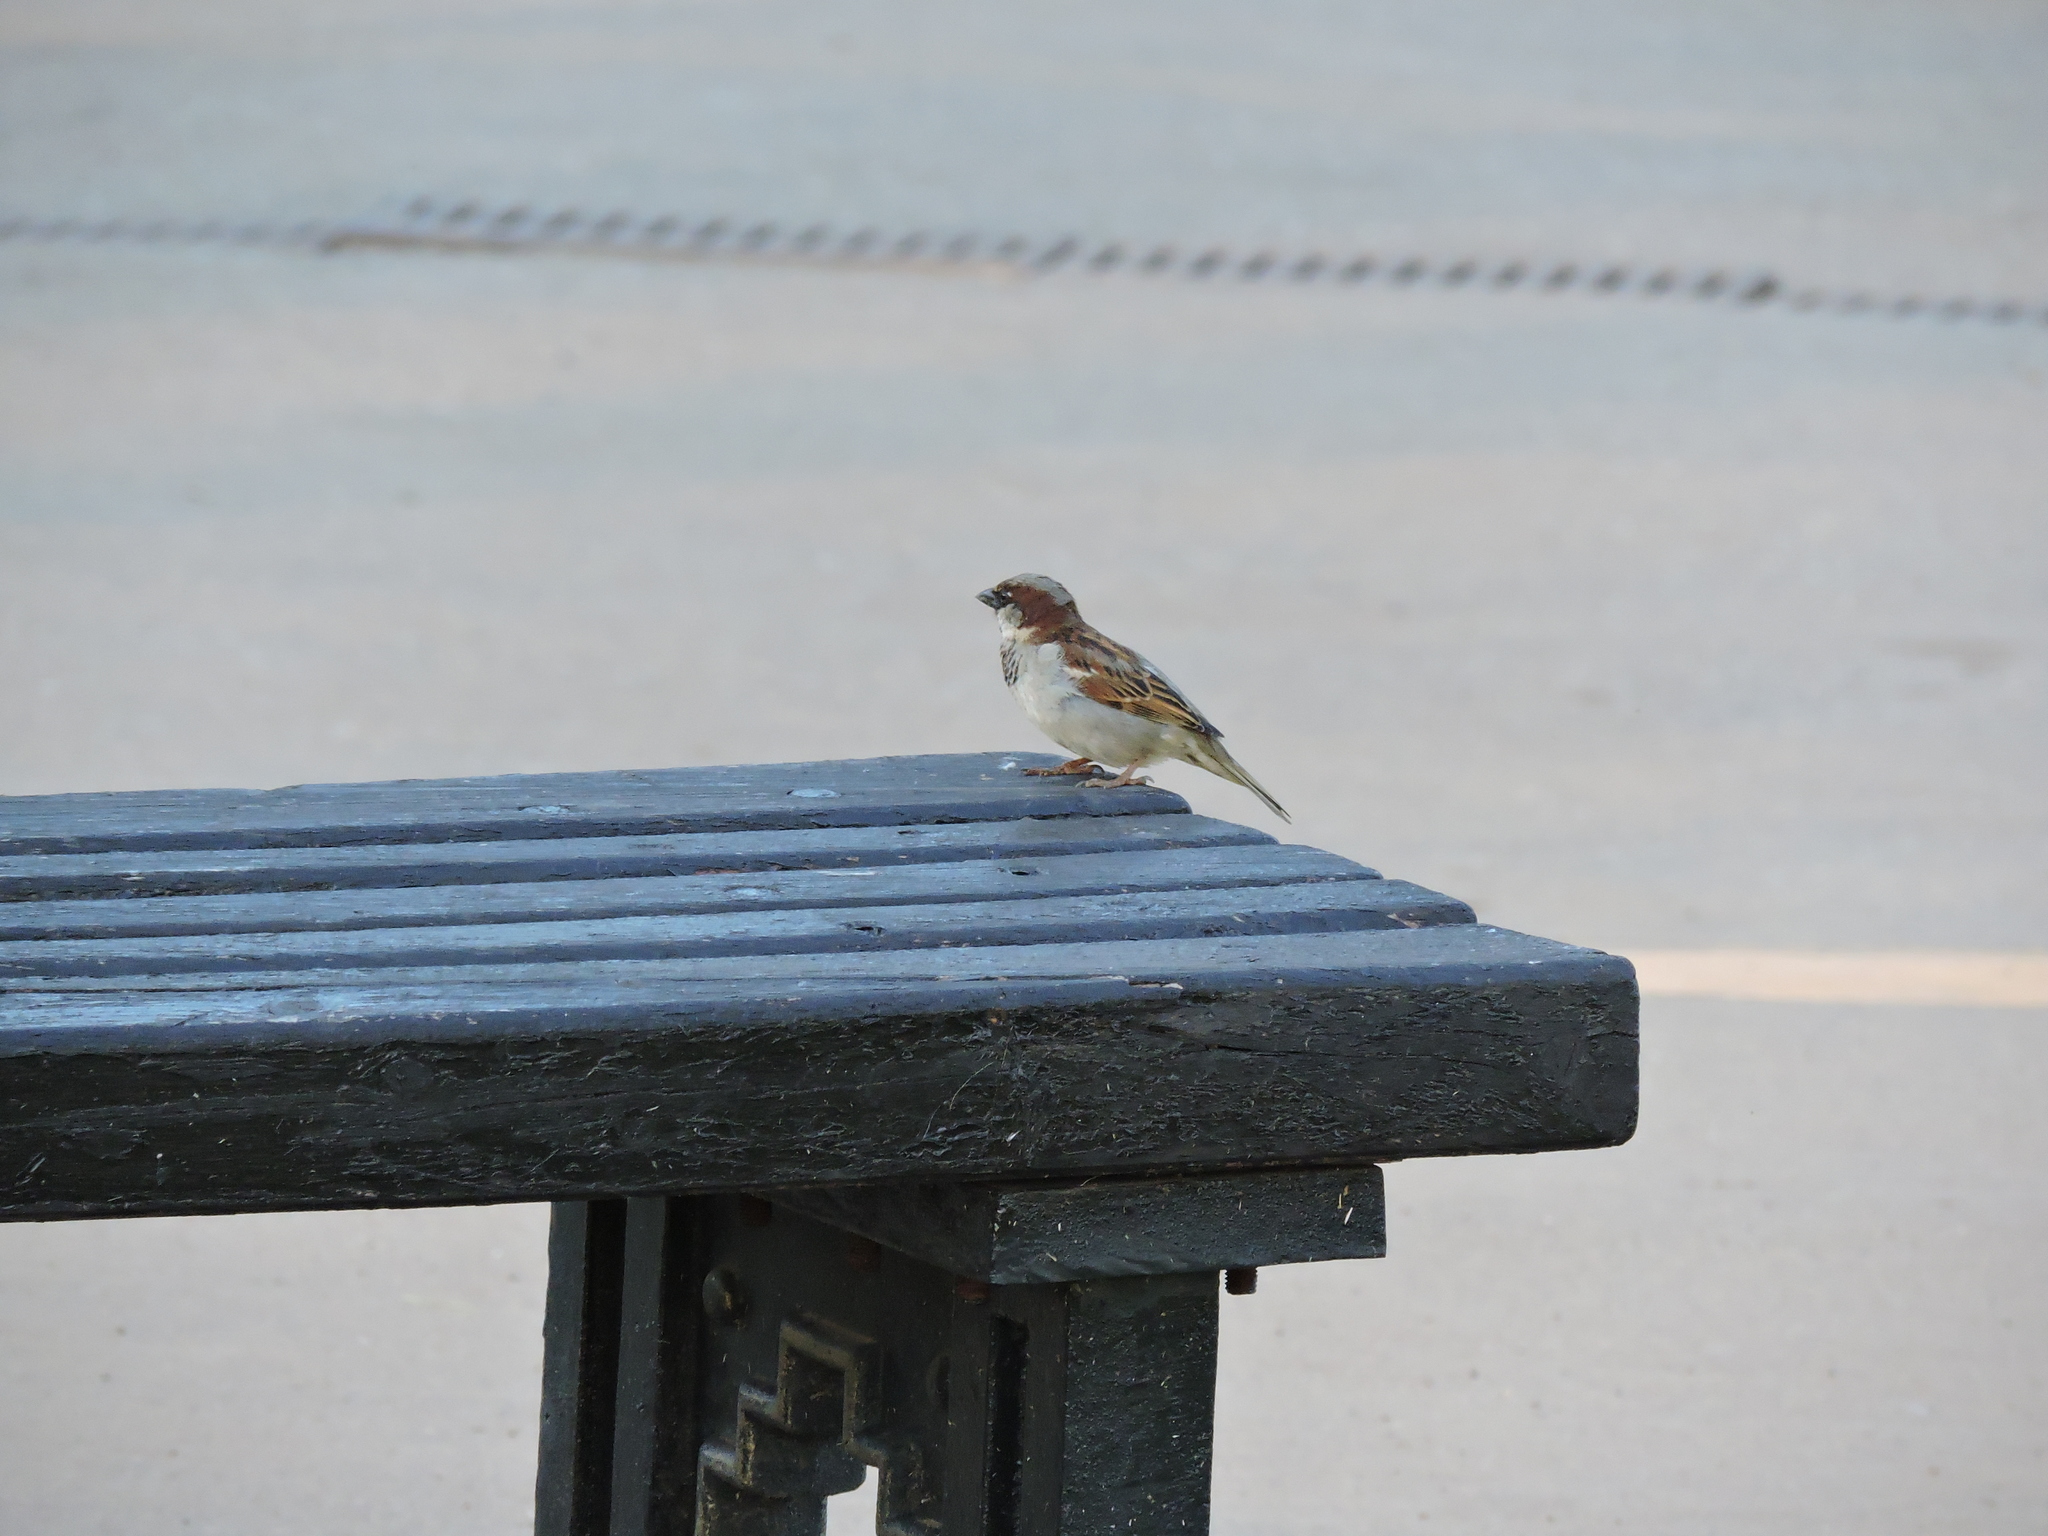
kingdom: Animalia
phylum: Chordata
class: Aves
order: Passeriformes
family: Passeridae
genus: Passer
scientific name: Passer domesticus
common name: House sparrow
